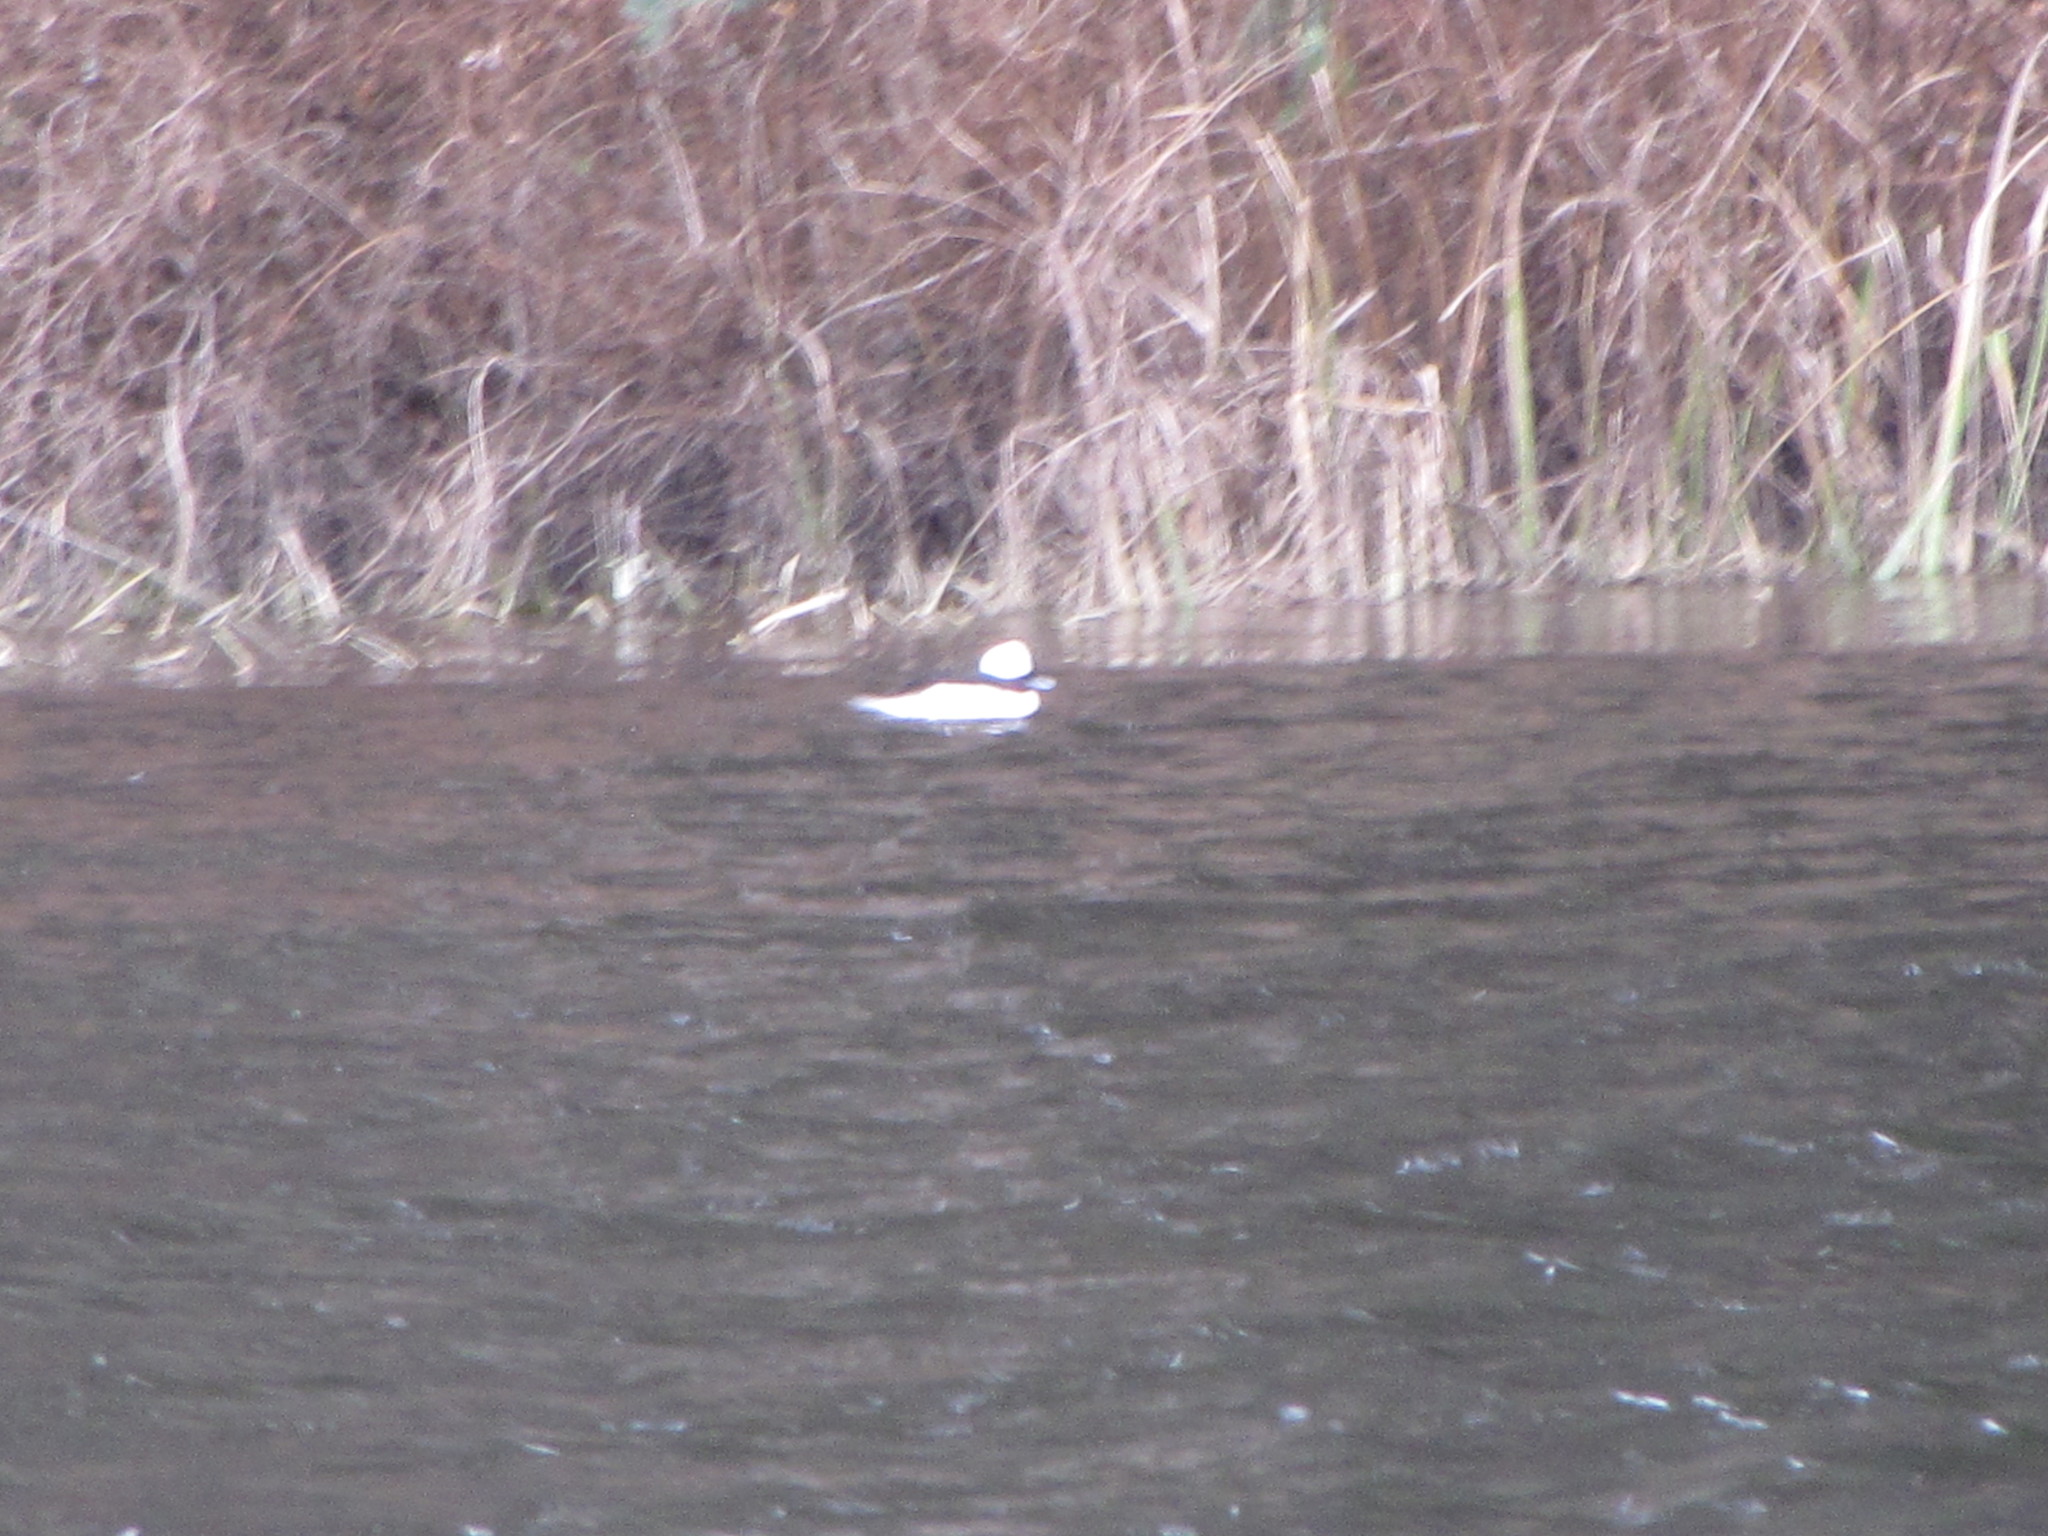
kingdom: Animalia
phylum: Chordata
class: Aves
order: Anseriformes
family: Anatidae
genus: Bucephala
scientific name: Bucephala albeola
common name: Bufflehead
